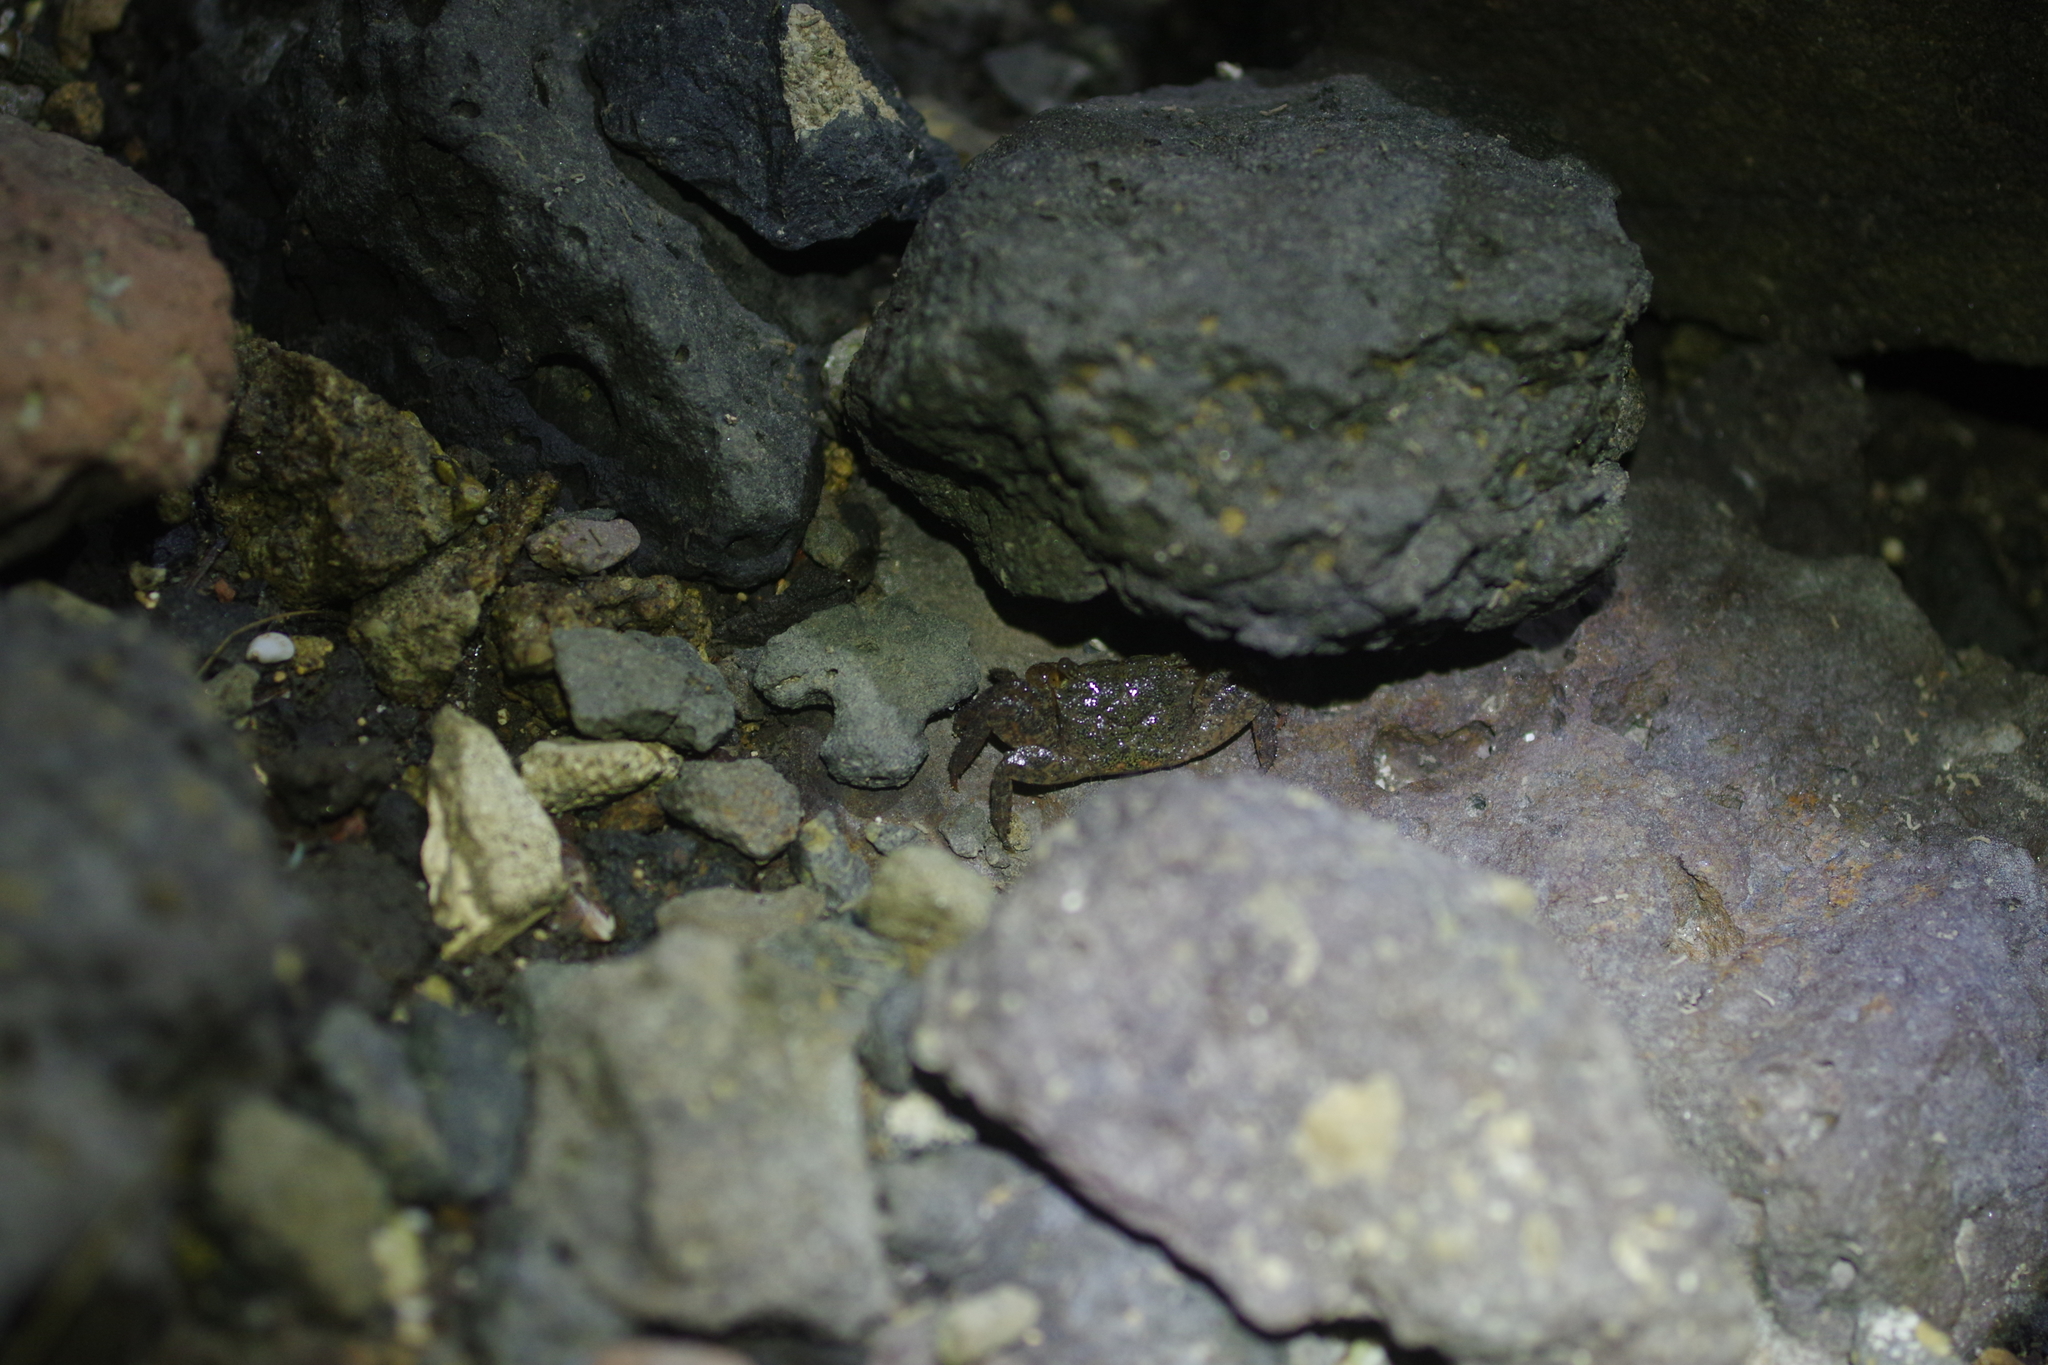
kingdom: Animalia
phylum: Arthropoda
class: Malacostraca
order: Decapoda
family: Sesarmidae
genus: Parasesarma
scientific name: Parasesarma bidens
